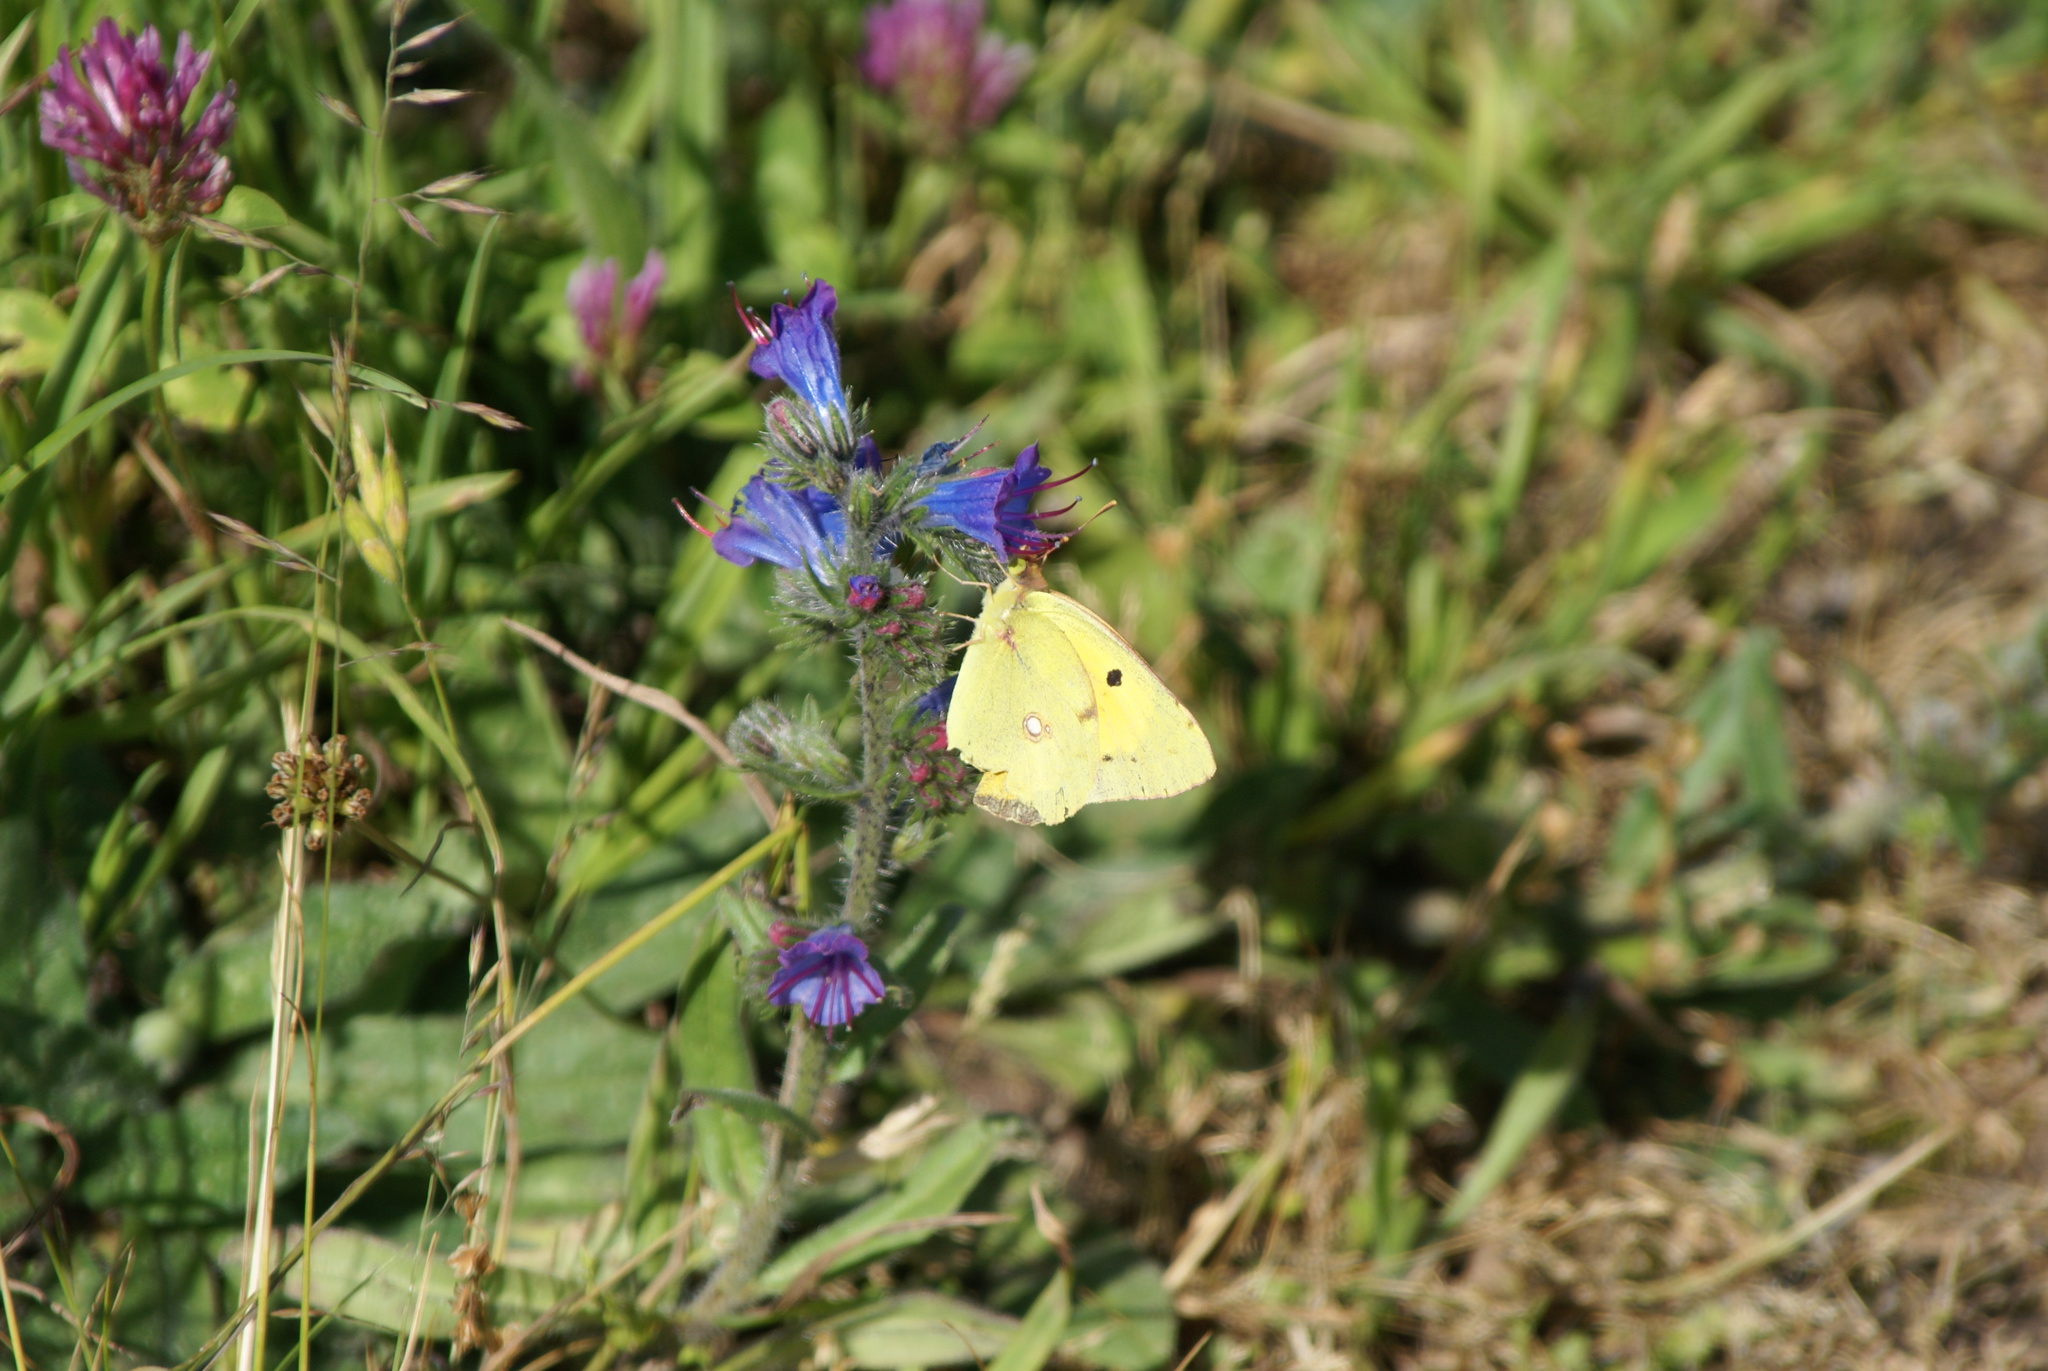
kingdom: Animalia
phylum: Arthropoda
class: Insecta
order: Lepidoptera
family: Pieridae
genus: Colias
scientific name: Colias croceus
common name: Clouded yellow
